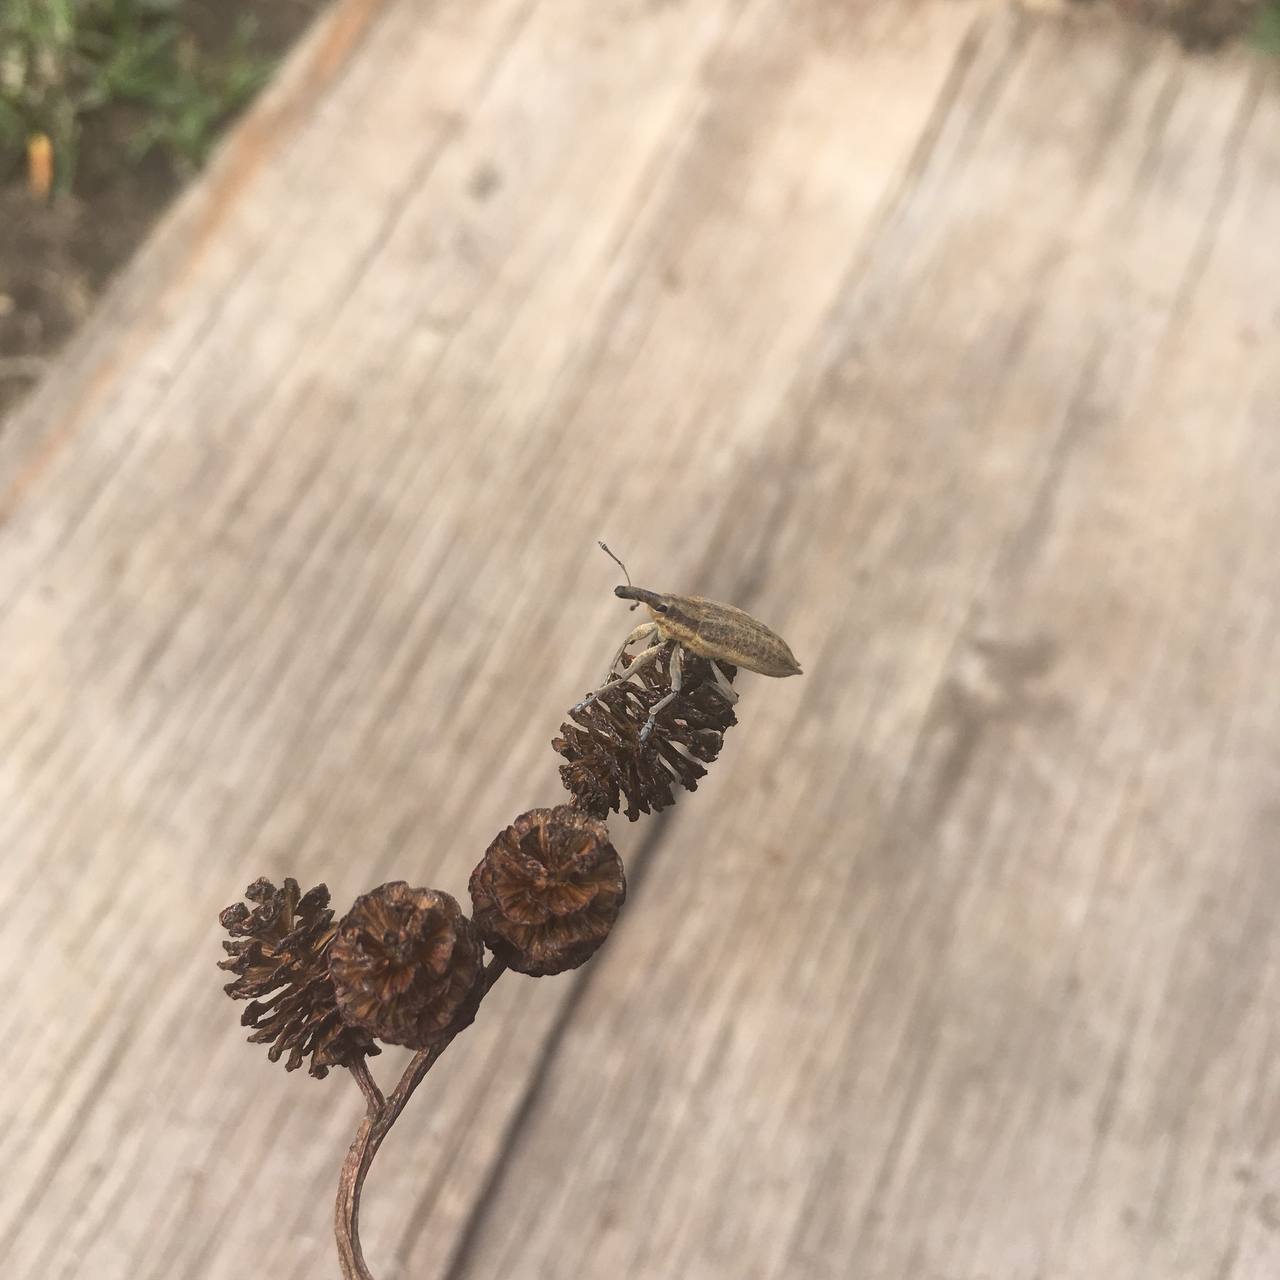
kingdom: Animalia
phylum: Arthropoda
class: Insecta
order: Coleoptera
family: Curculionidae
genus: Lixus
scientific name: Lixus iridis
